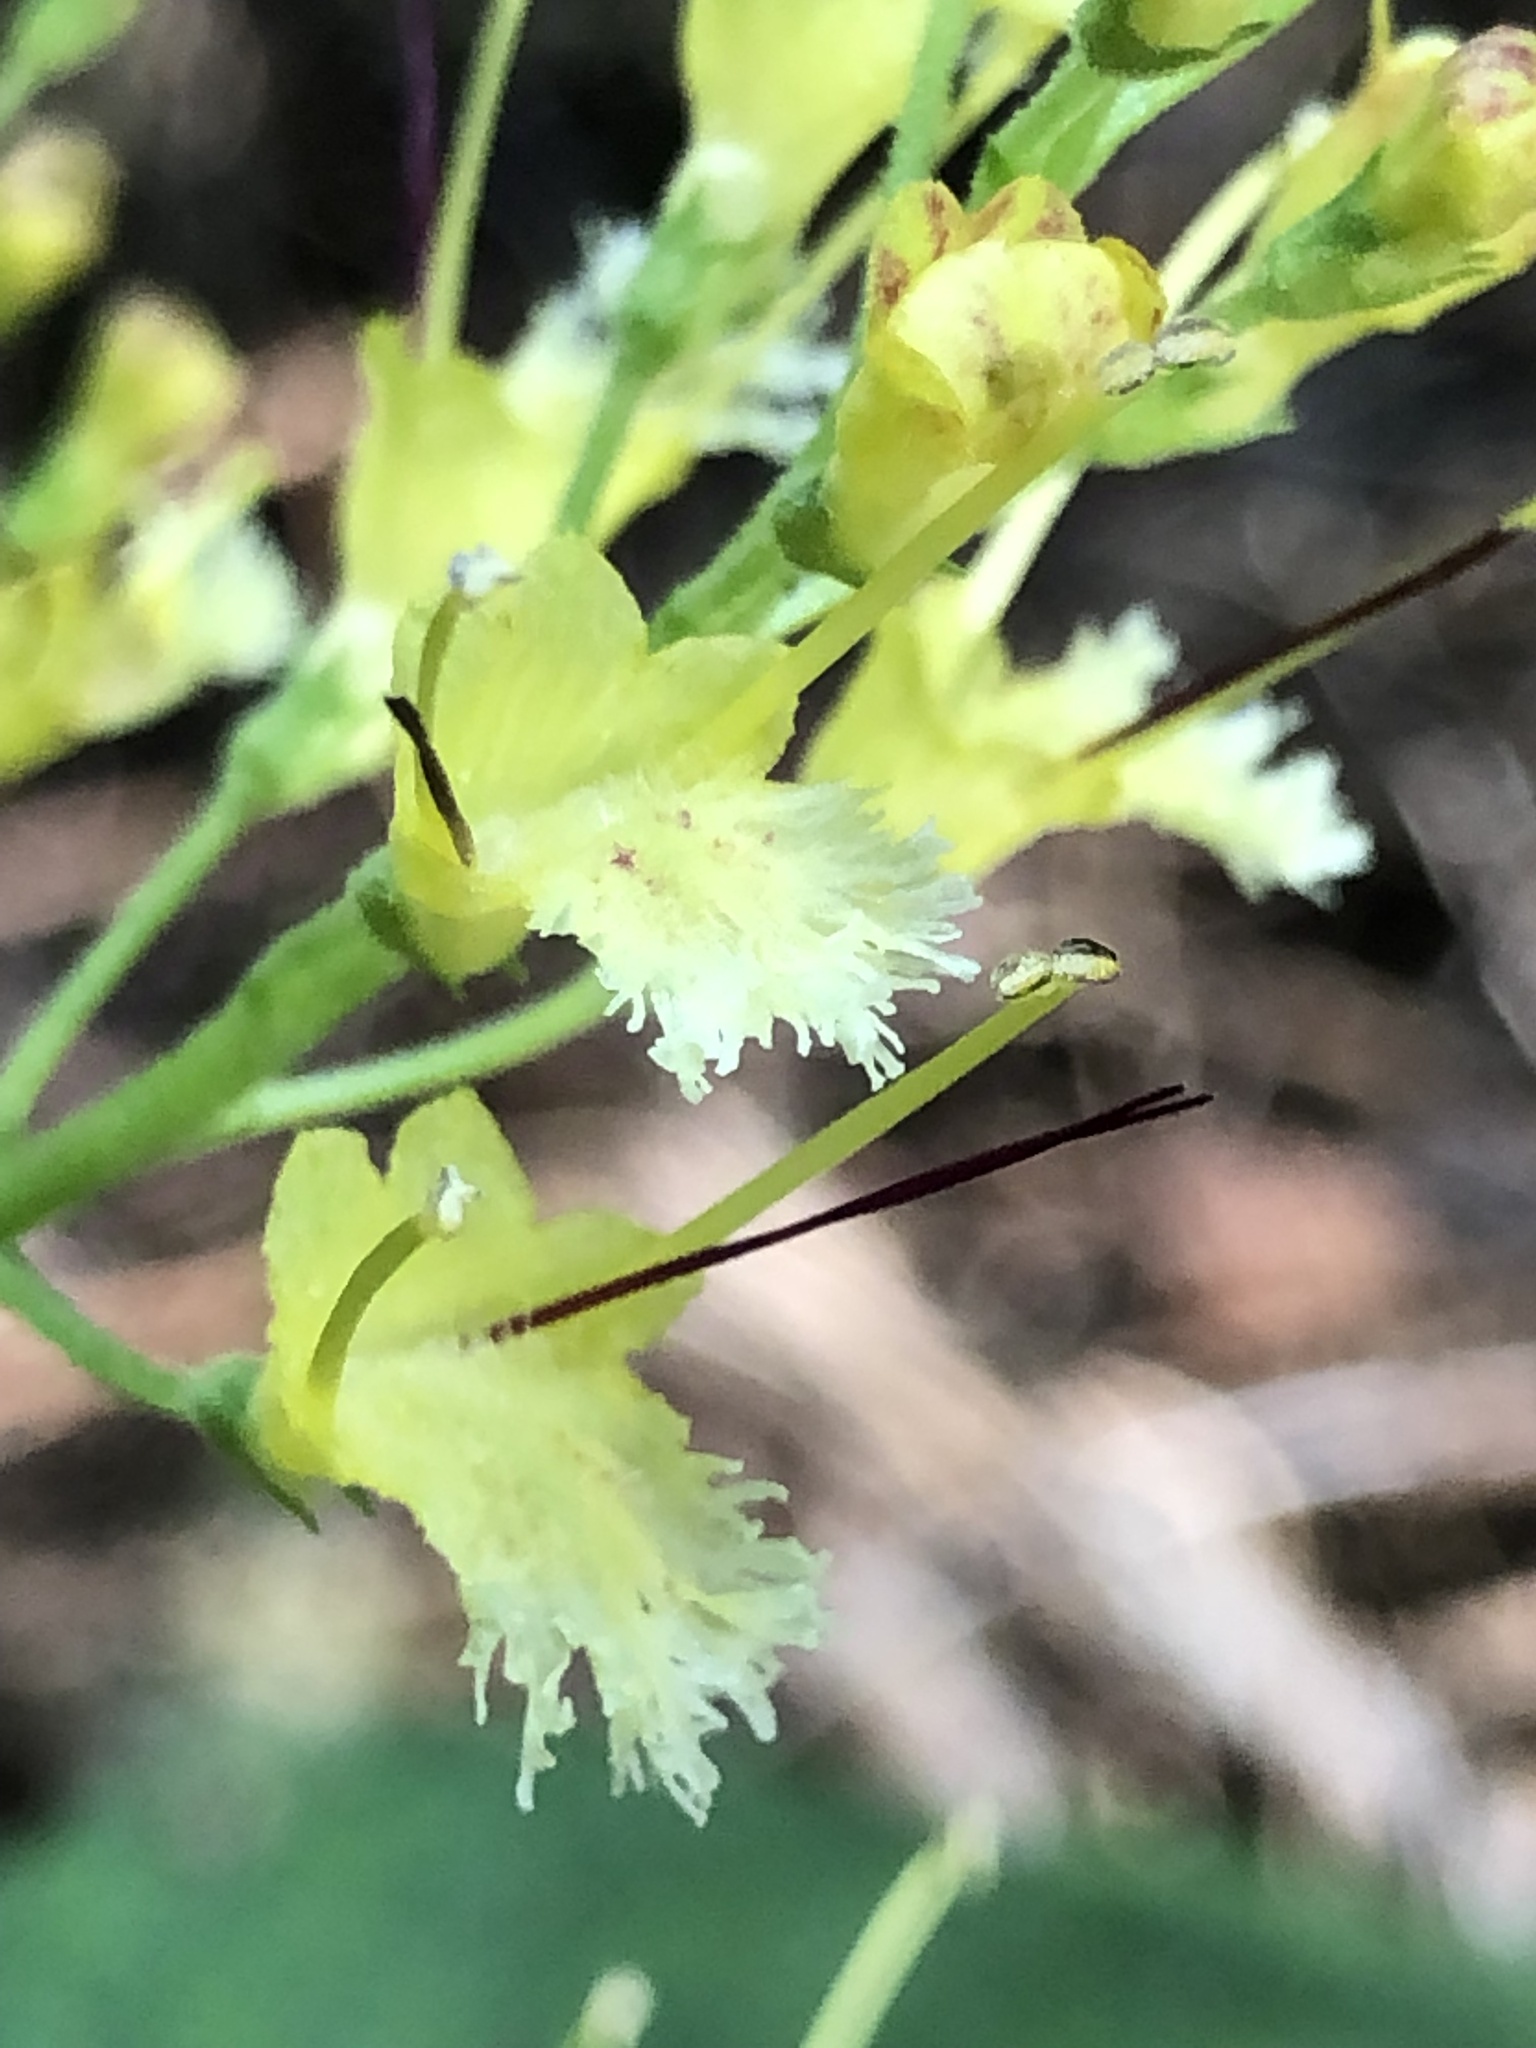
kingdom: Plantae
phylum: Tracheophyta
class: Magnoliopsida
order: Lamiales
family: Lamiaceae
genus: Collinsonia
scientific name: Collinsonia canadensis
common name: Northern horsebalm
